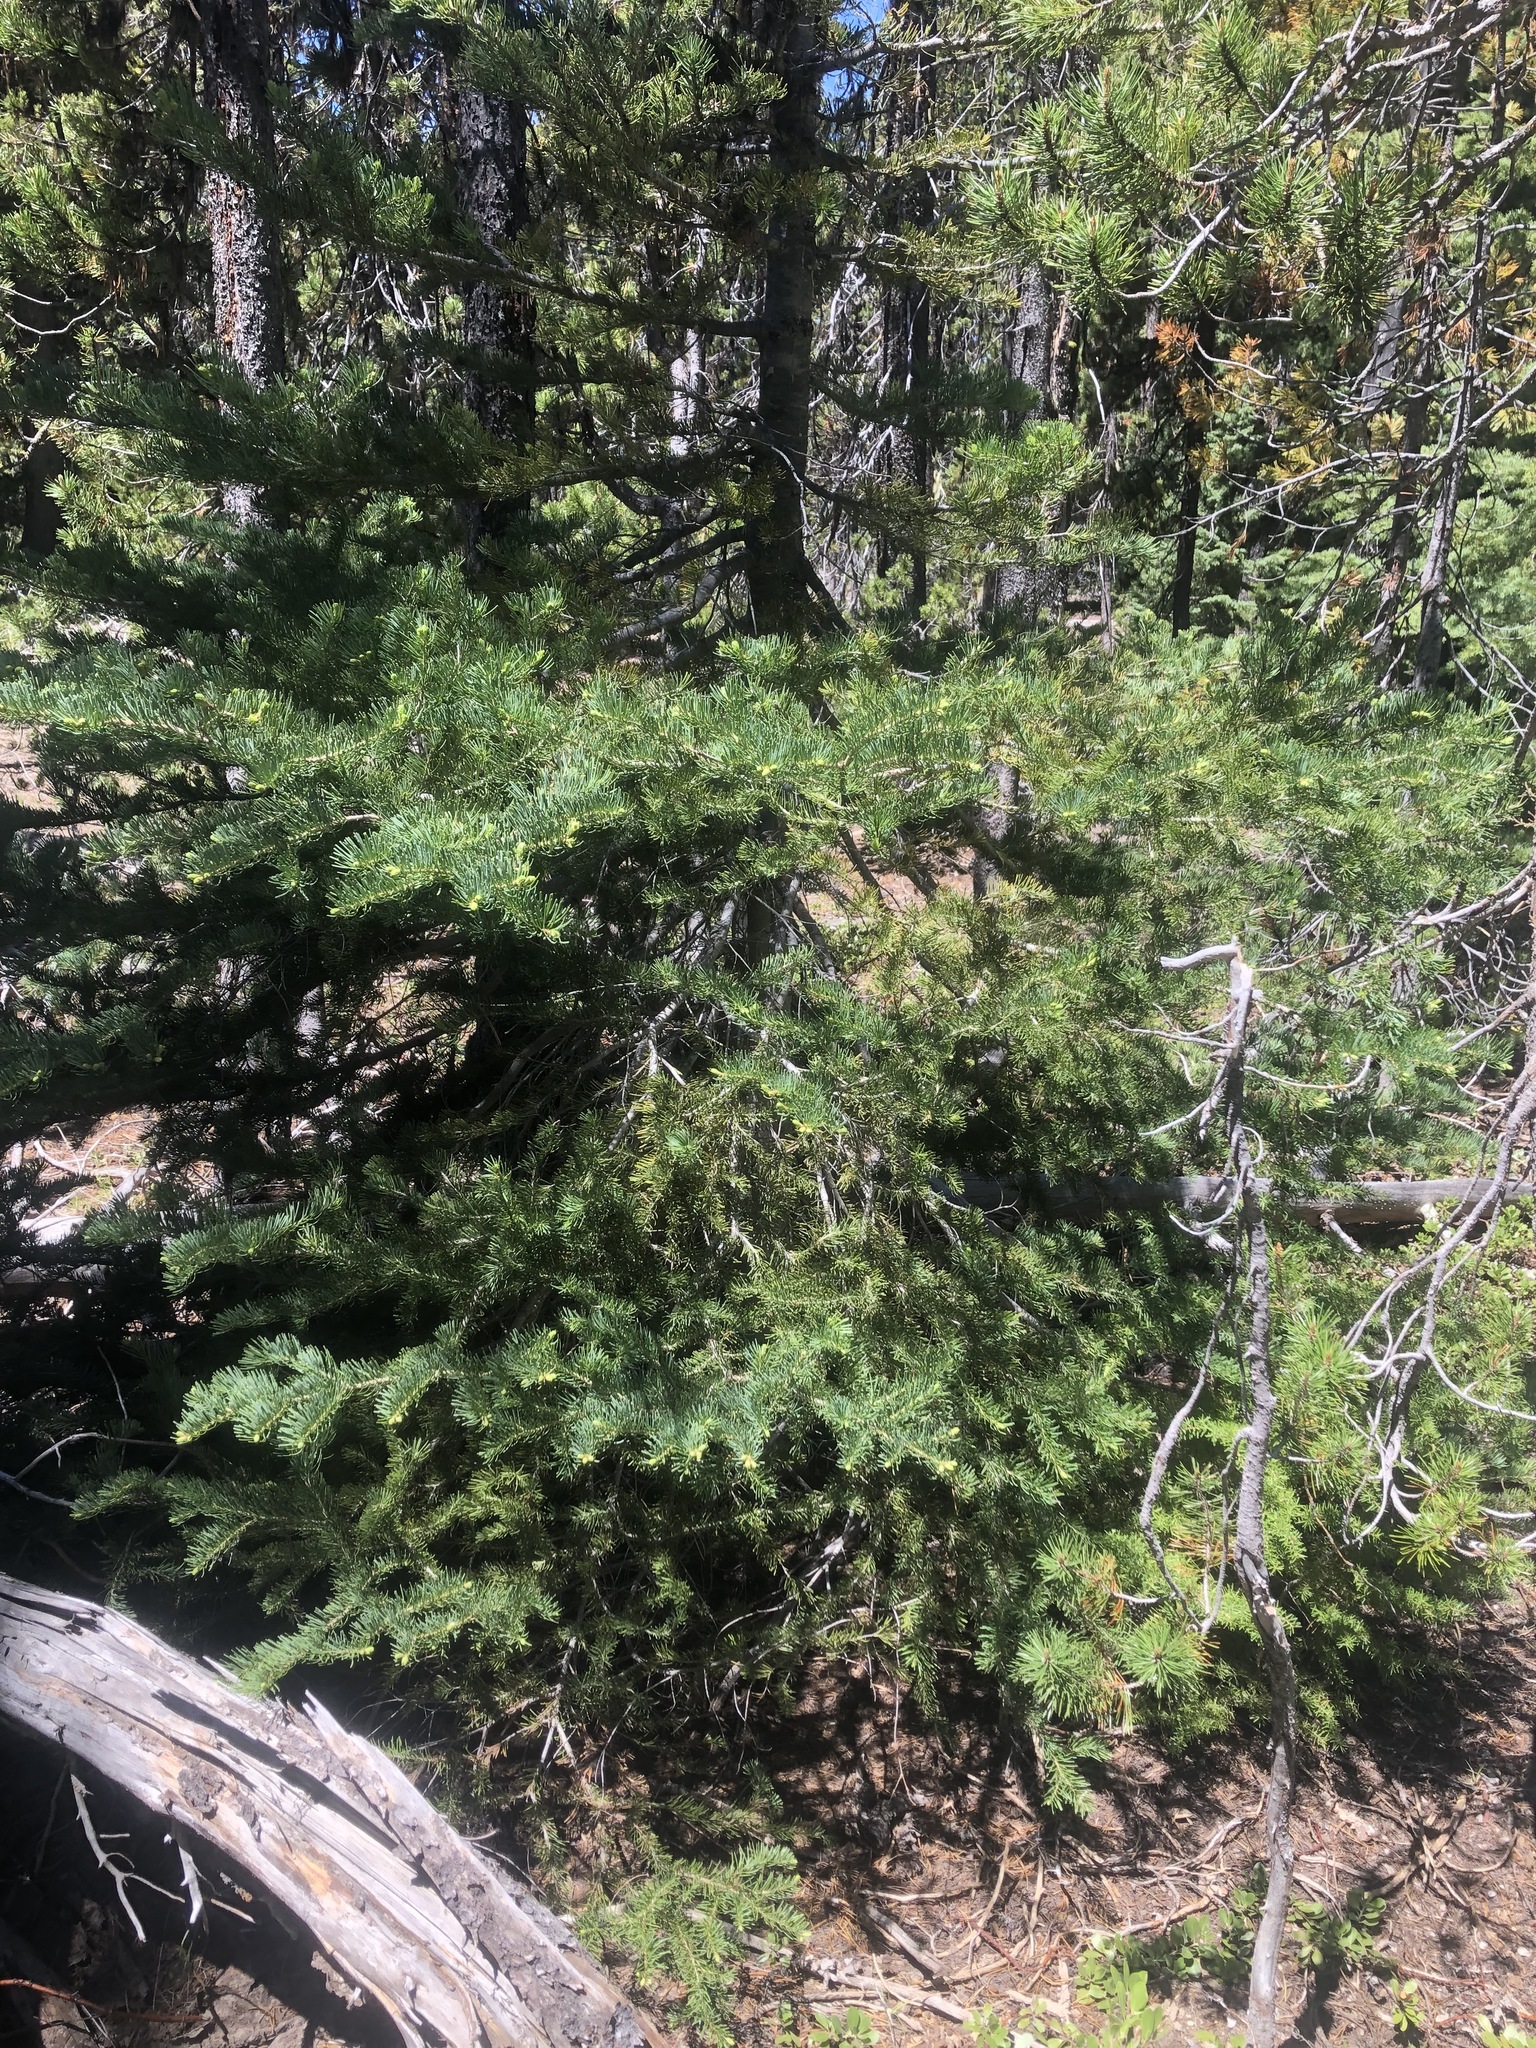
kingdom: Plantae
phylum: Tracheophyta
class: Pinopsida
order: Pinales
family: Pinaceae
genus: Abies
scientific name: Abies lasiocarpa
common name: Subalpine fir
